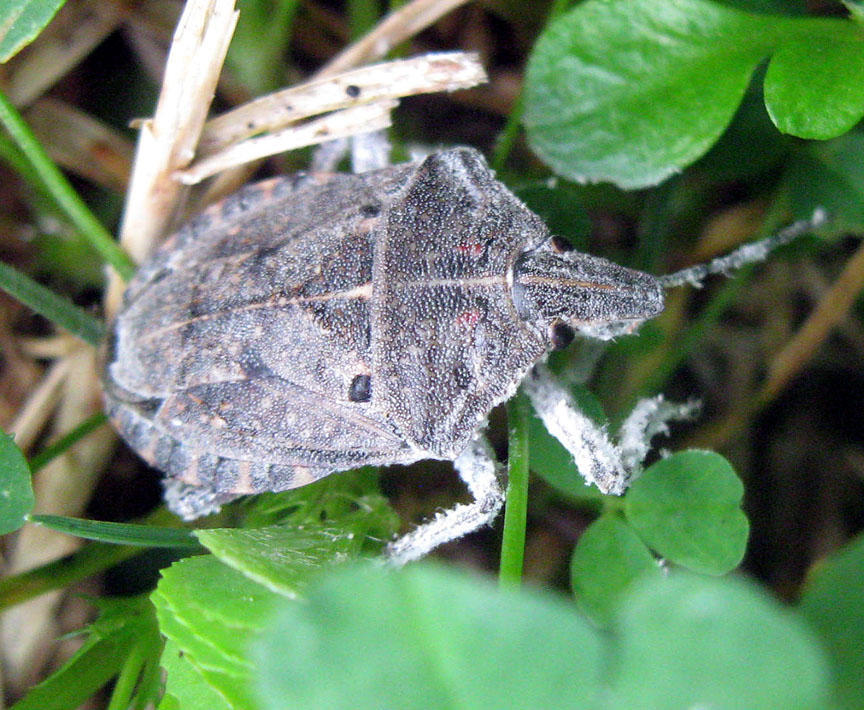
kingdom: Animalia
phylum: Arthropoda
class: Insecta
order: Hemiptera
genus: Peltasticus
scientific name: Peltasticus
